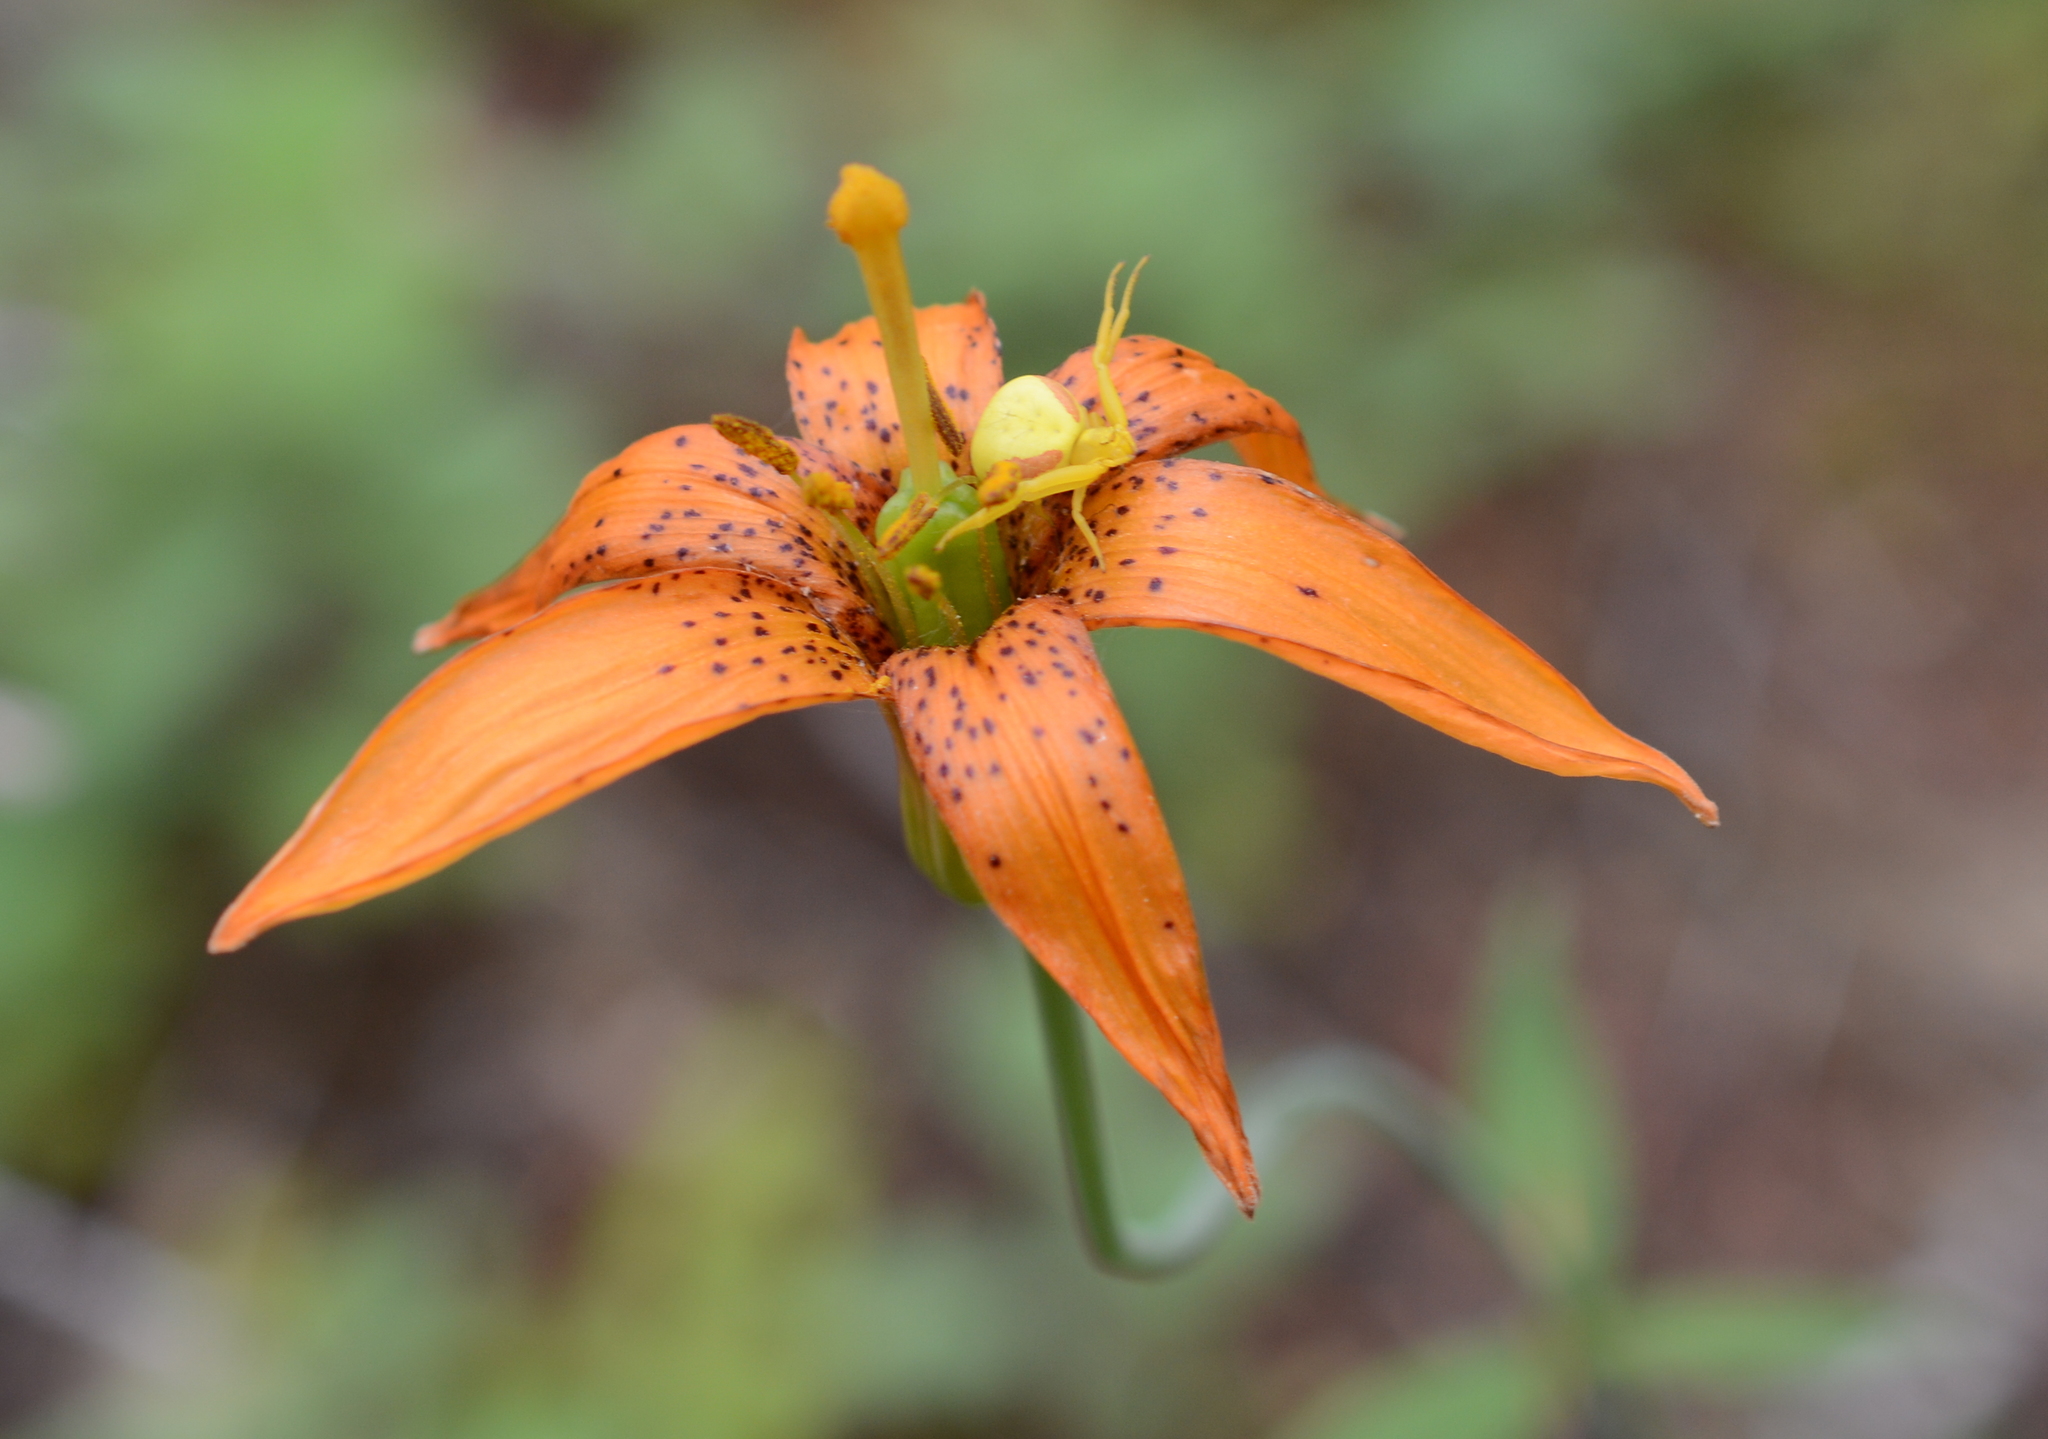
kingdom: Plantae
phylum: Tracheophyta
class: Liliopsida
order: Liliales
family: Liliaceae
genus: Lilium
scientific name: Lilium columbianum
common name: Columbia lily
